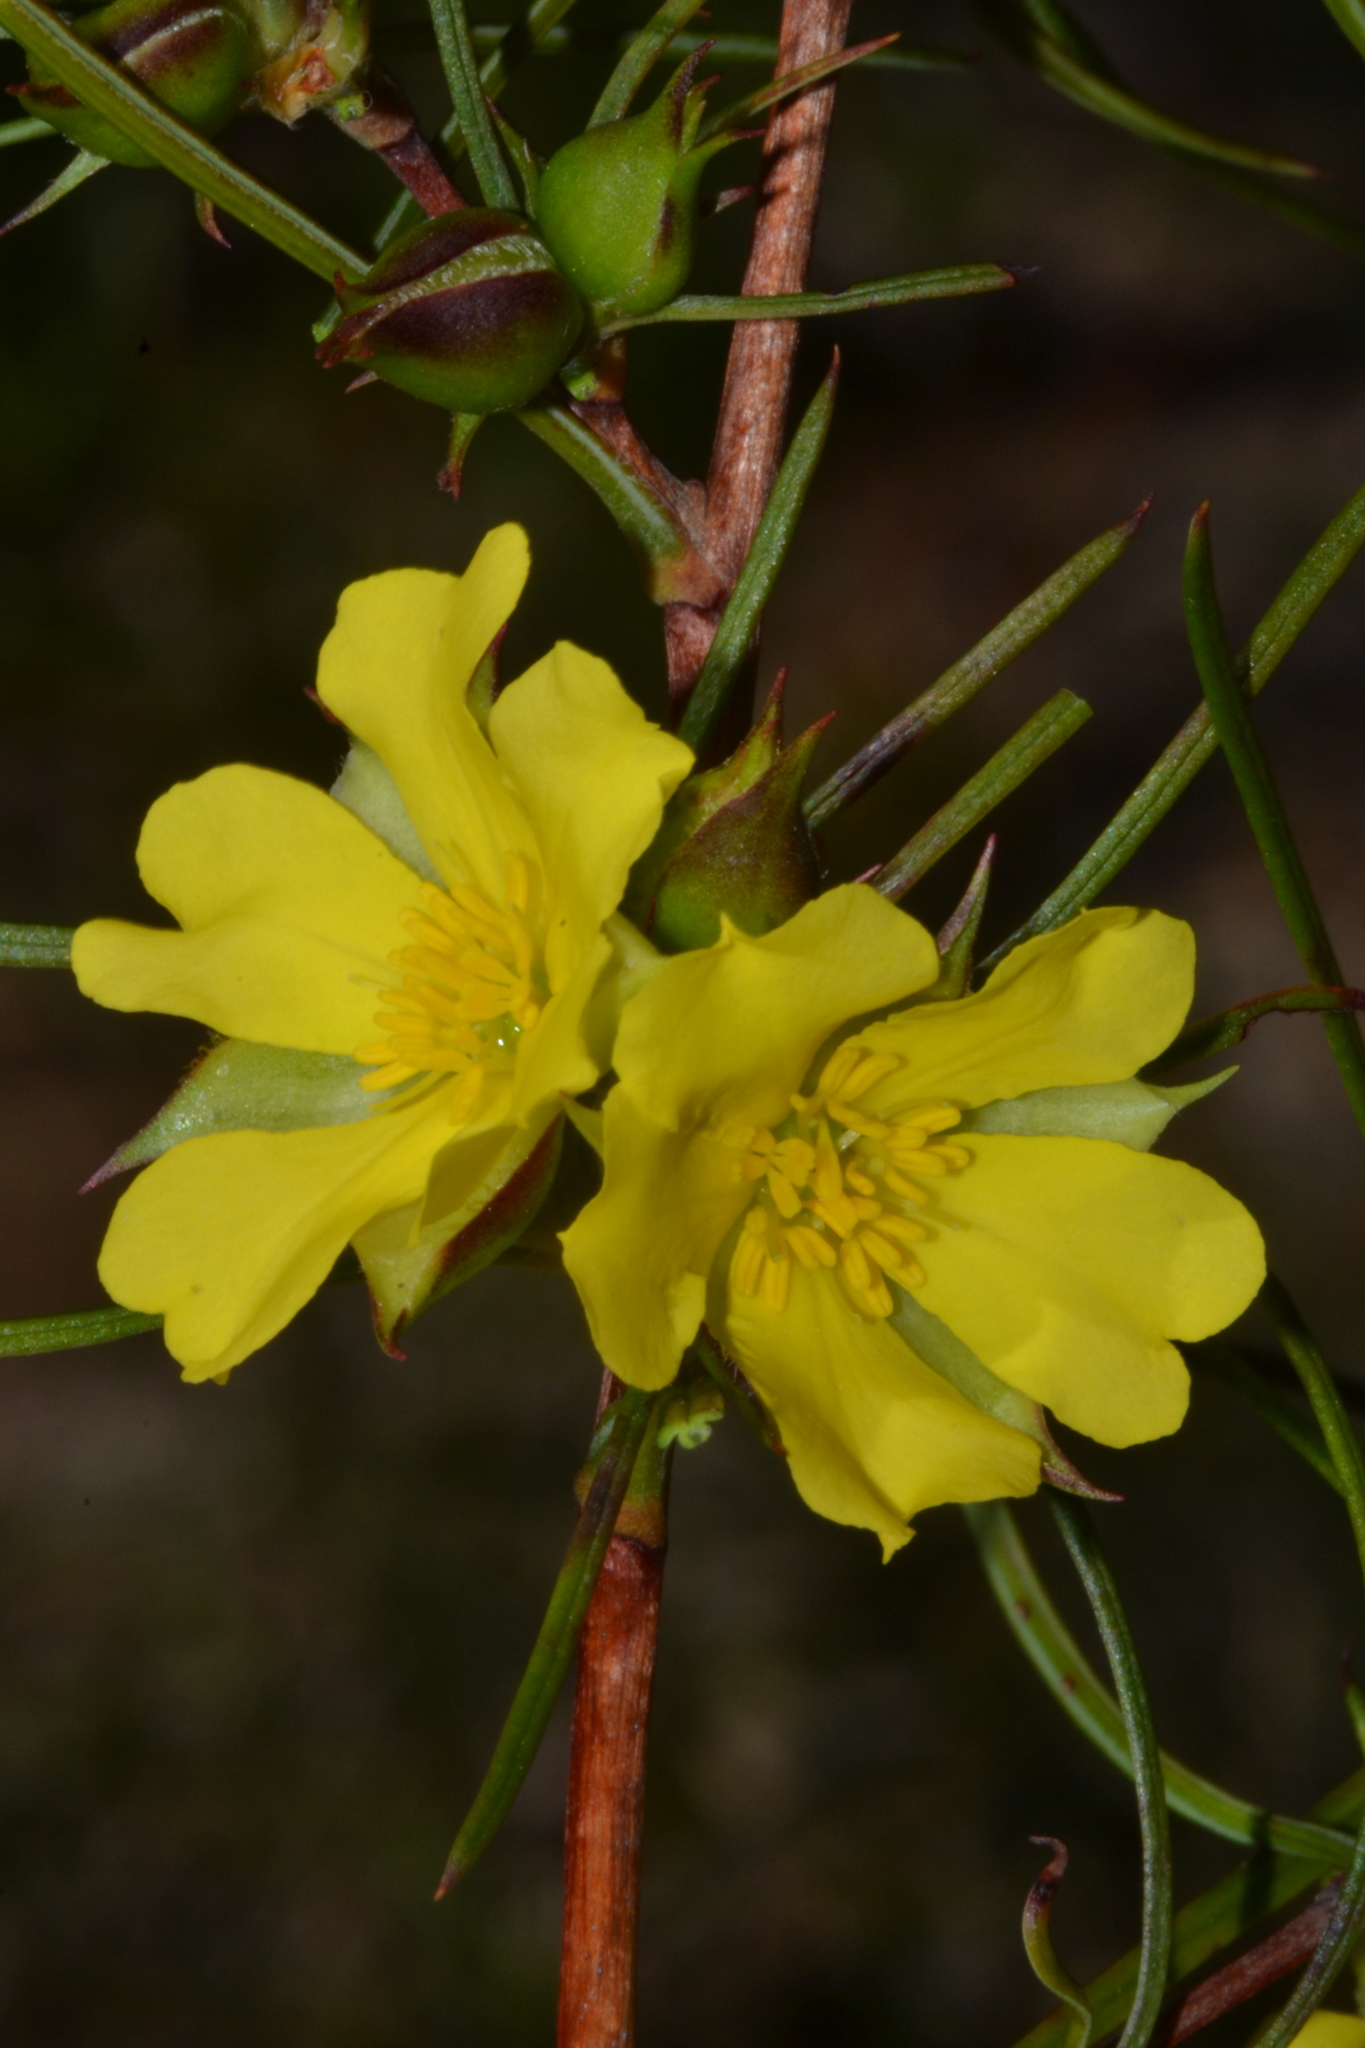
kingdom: Plantae
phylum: Tracheophyta
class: Magnoliopsida
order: Dilleniales
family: Dilleniaceae
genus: Hibbertia
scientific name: Hibbertia striata
